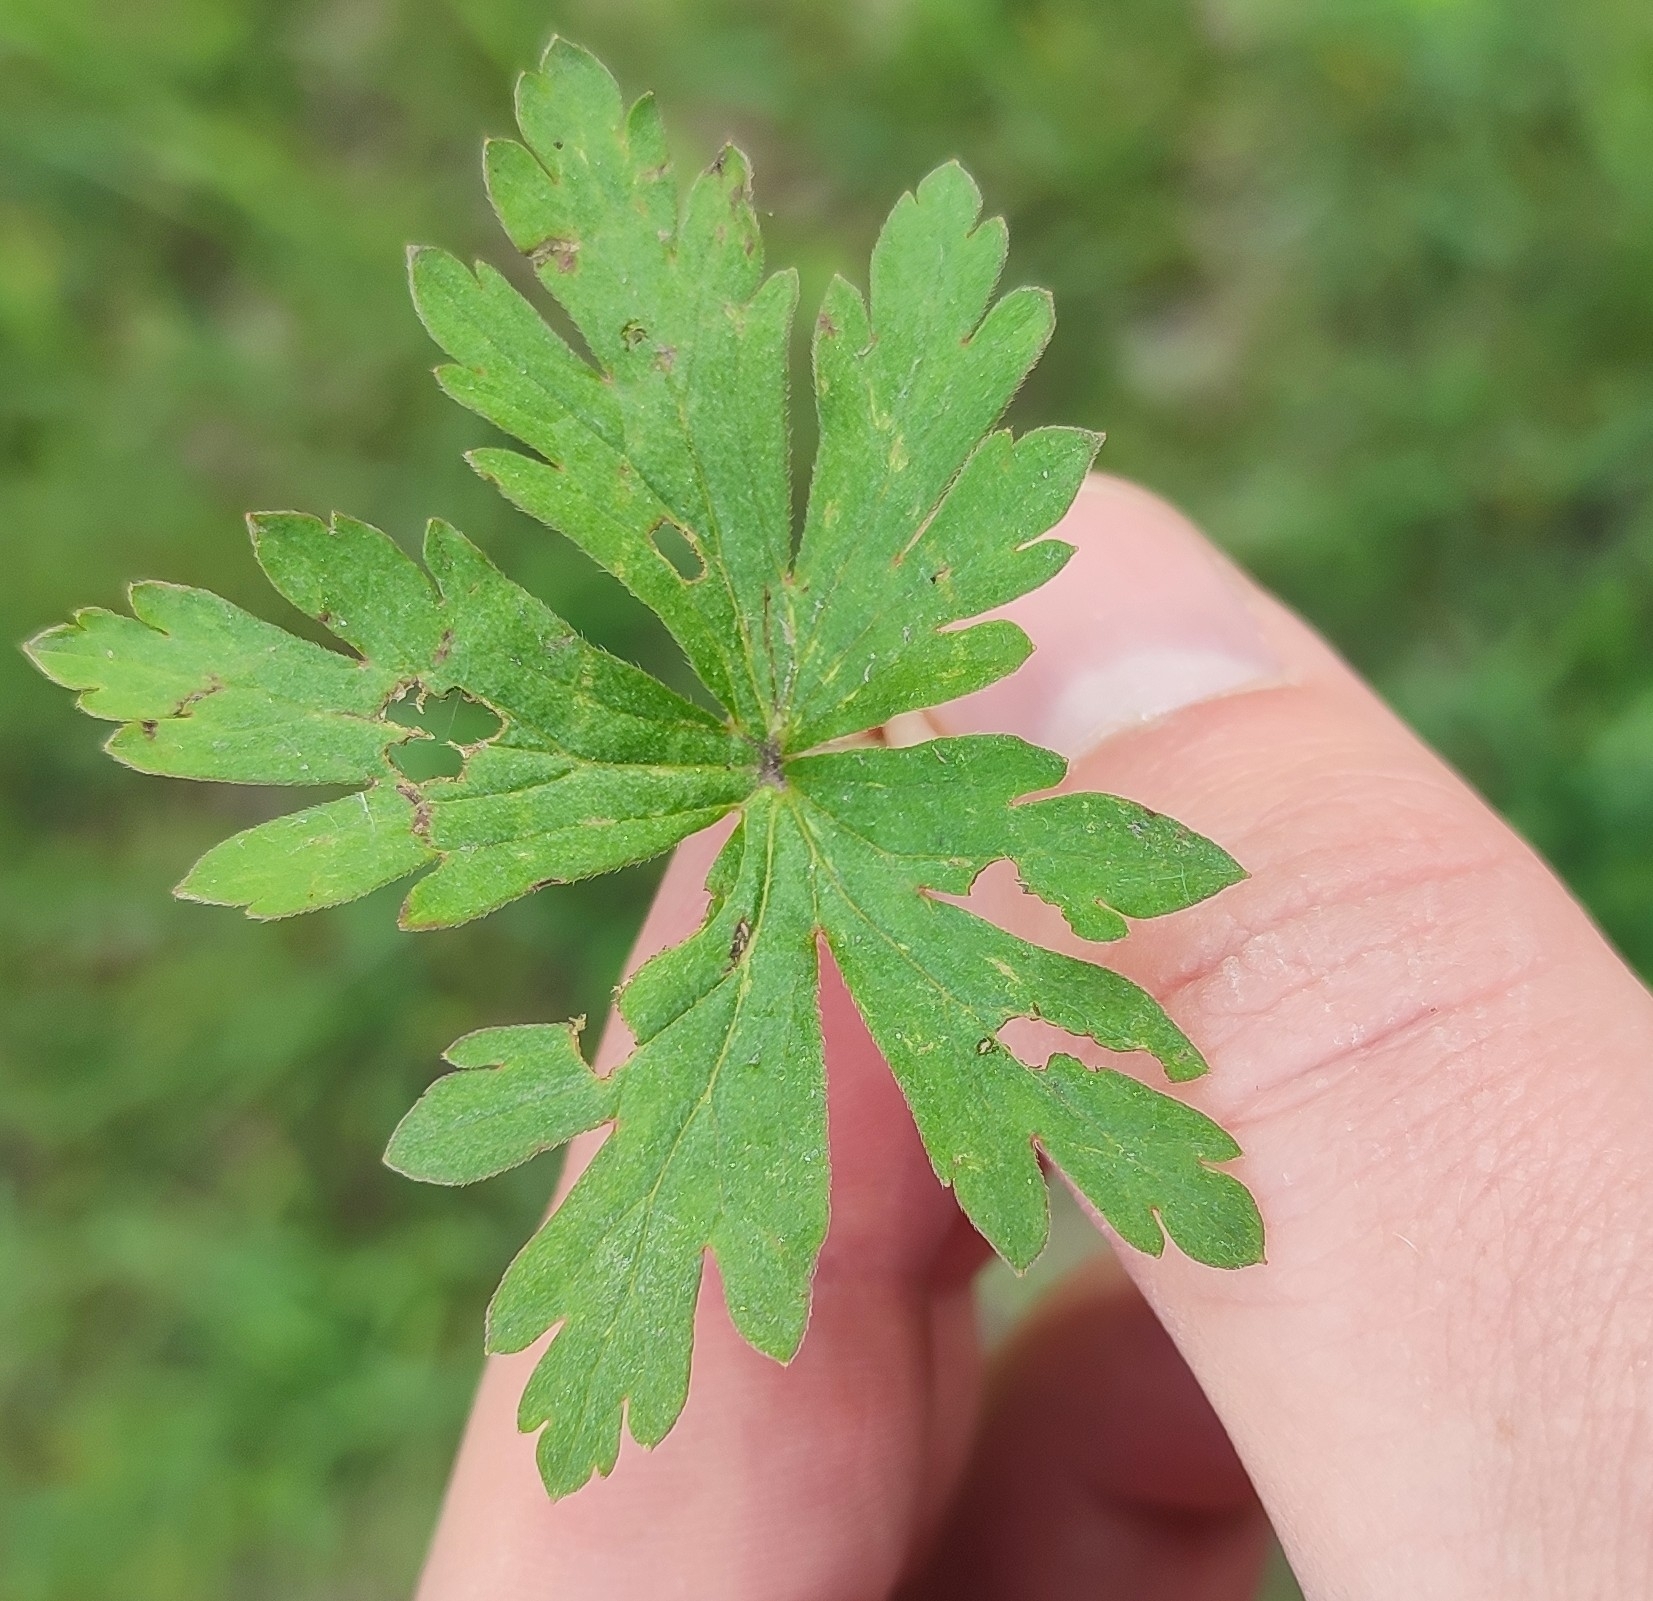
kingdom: Plantae
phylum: Tracheophyta
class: Magnoliopsida
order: Geraniales
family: Geraniaceae
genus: Geranium
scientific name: Geranium sibiricum
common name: Siberian crane's-bill
